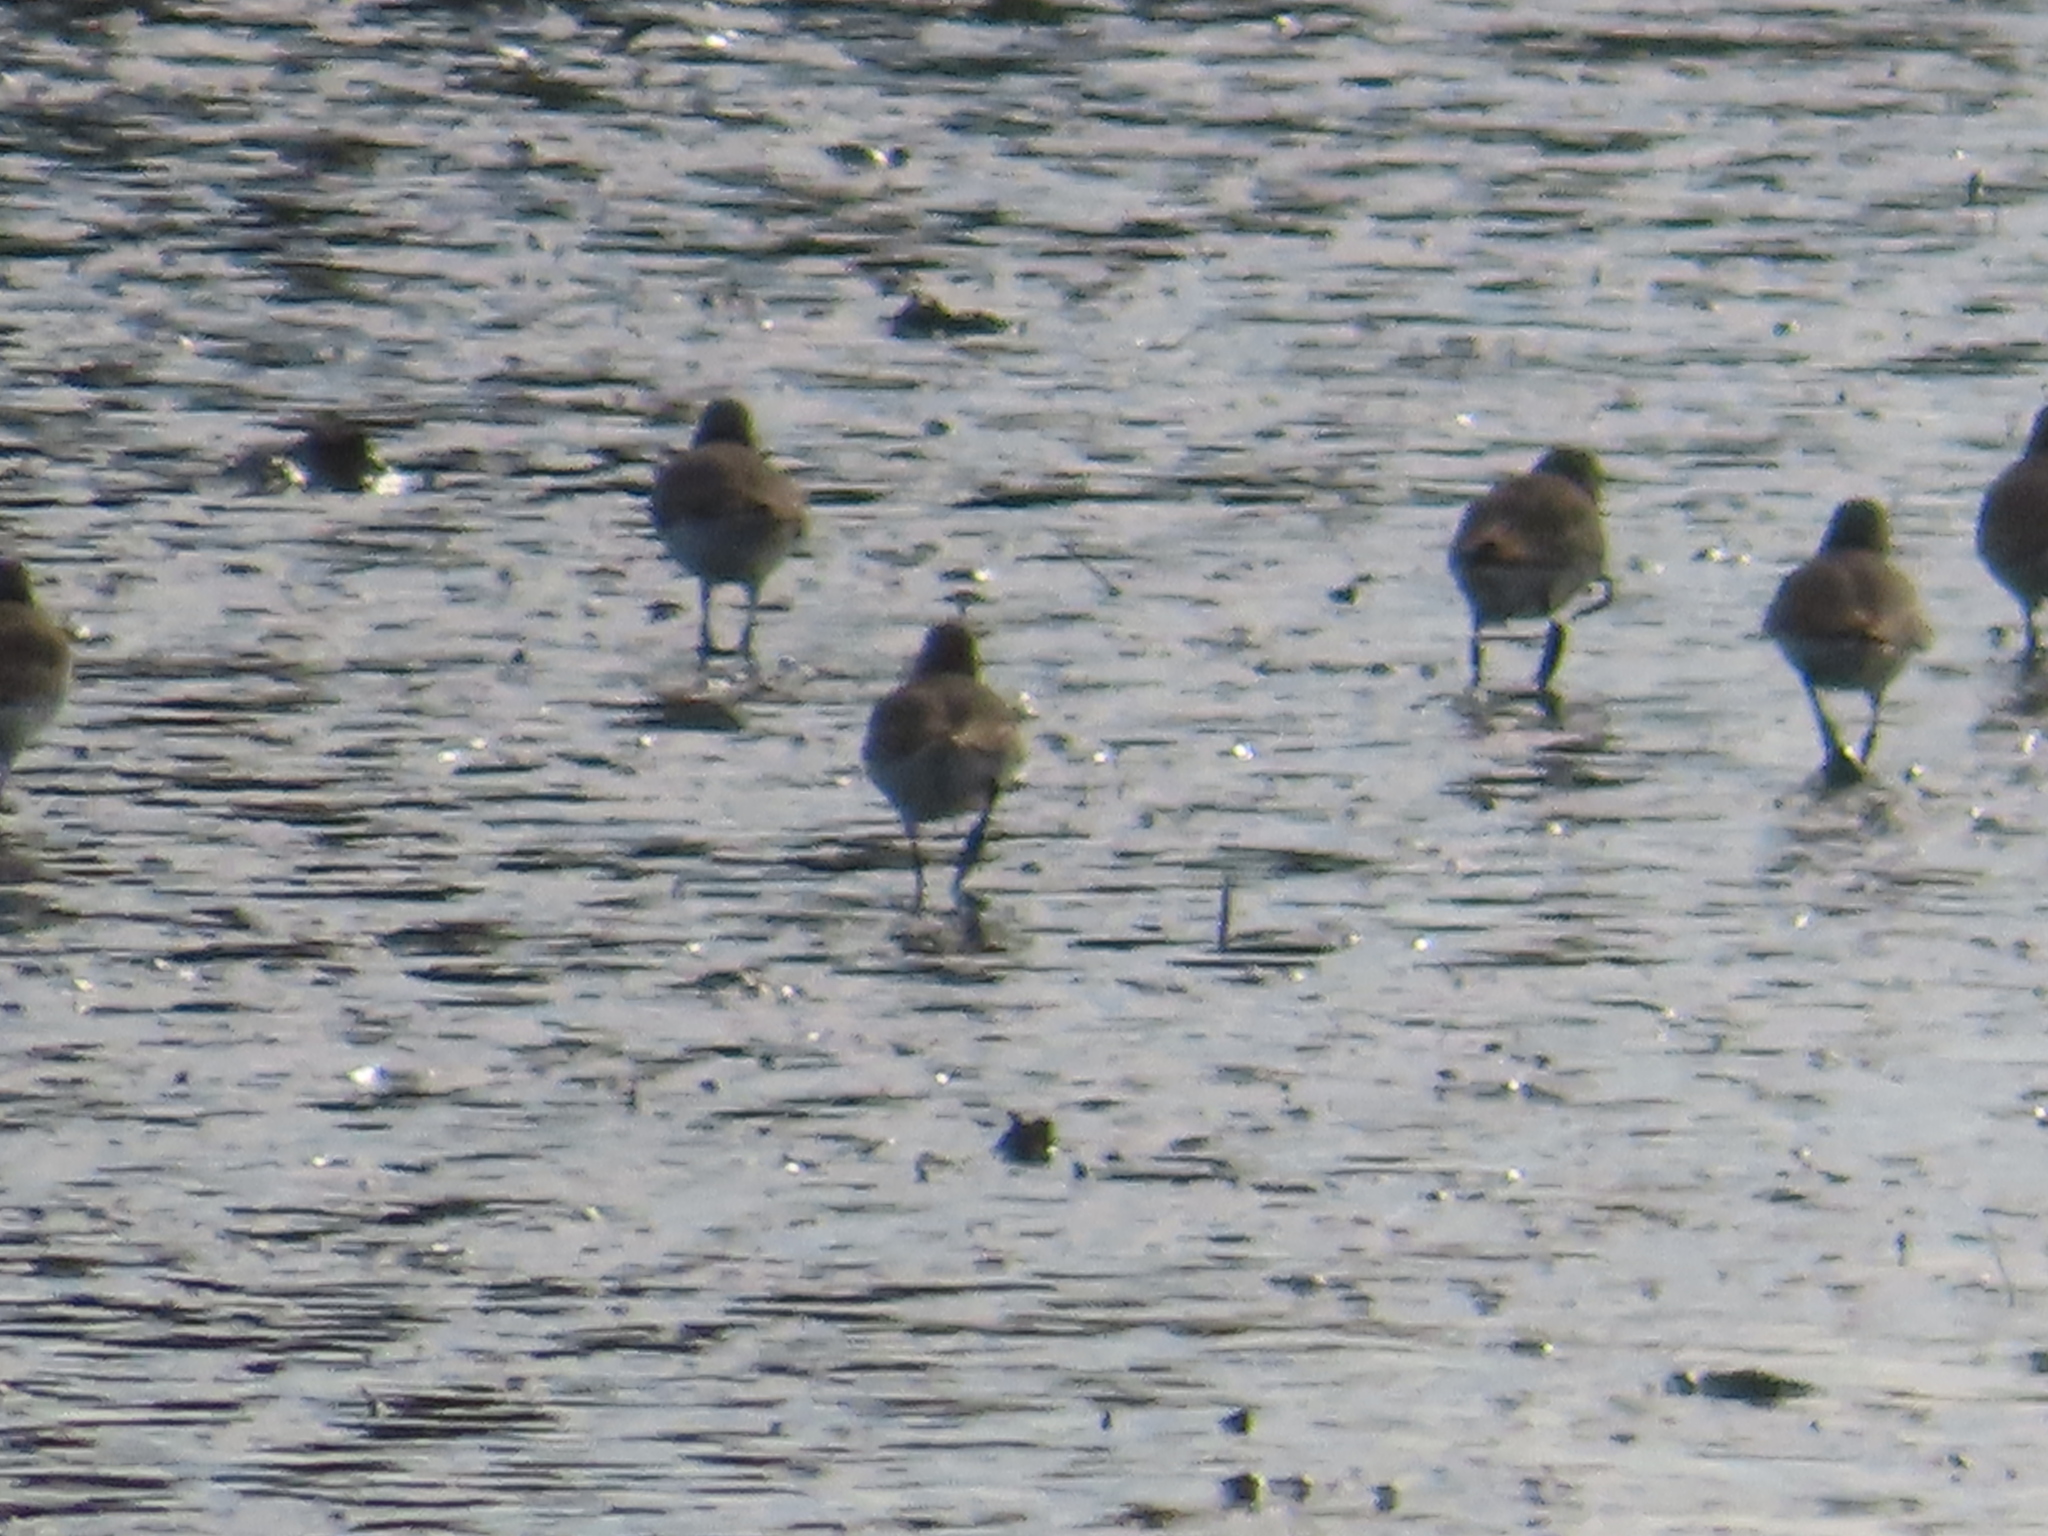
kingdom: Animalia
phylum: Chordata
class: Aves
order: Charadriiformes
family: Scolopacidae
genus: Calidris
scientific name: Calidris alpina
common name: Dunlin
